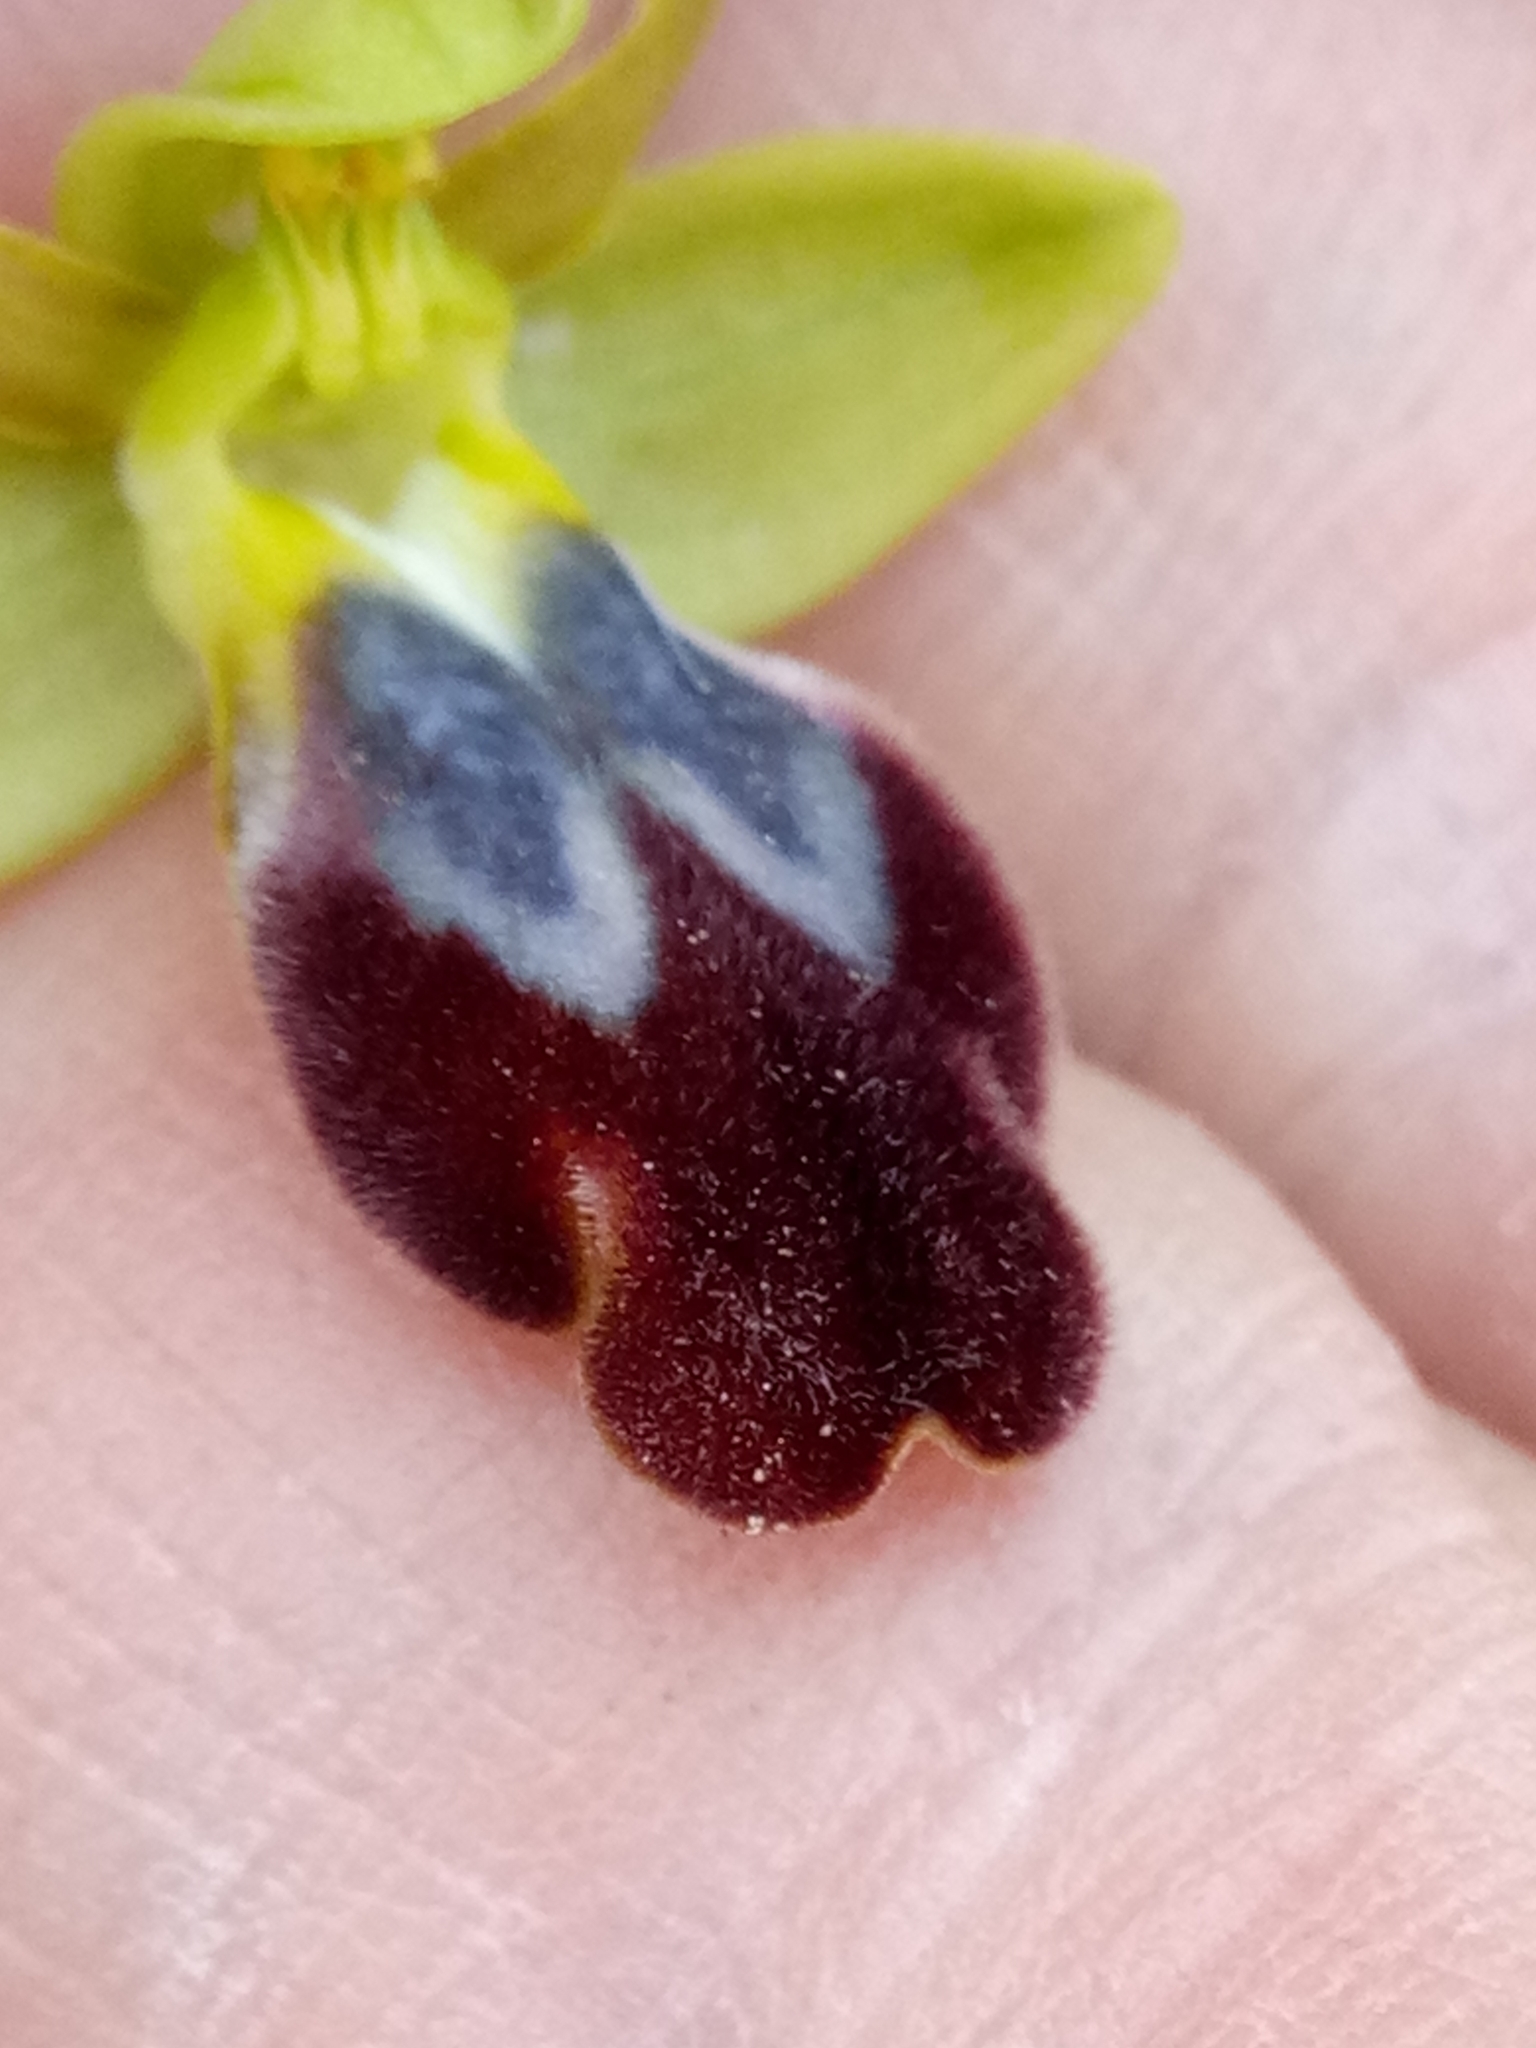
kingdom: Plantae
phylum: Tracheophyta
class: Liliopsida
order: Asparagales
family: Orchidaceae
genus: Ophrys
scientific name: Ophrys fusca
